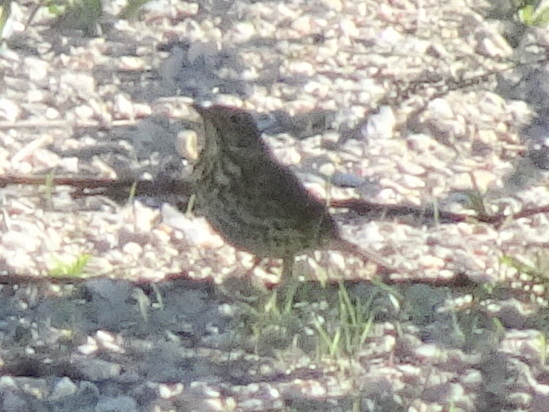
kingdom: Animalia
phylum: Chordata
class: Aves
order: Passeriformes
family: Turdidae
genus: Turdus
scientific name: Turdus philomelos
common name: Song thrush
